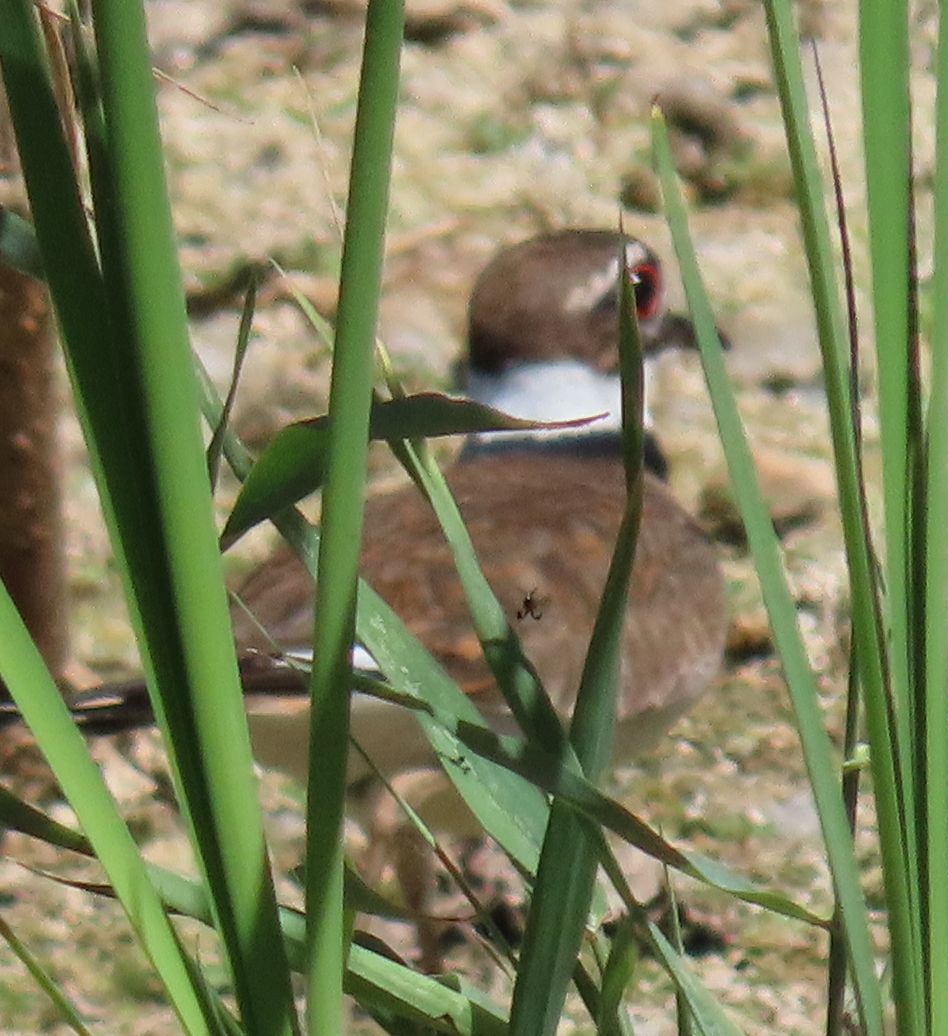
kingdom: Animalia
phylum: Chordata
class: Aves
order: Charadriiformes
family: Charadriidae
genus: Charadrius
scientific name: Charadrius vociferus
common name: Killdeer
